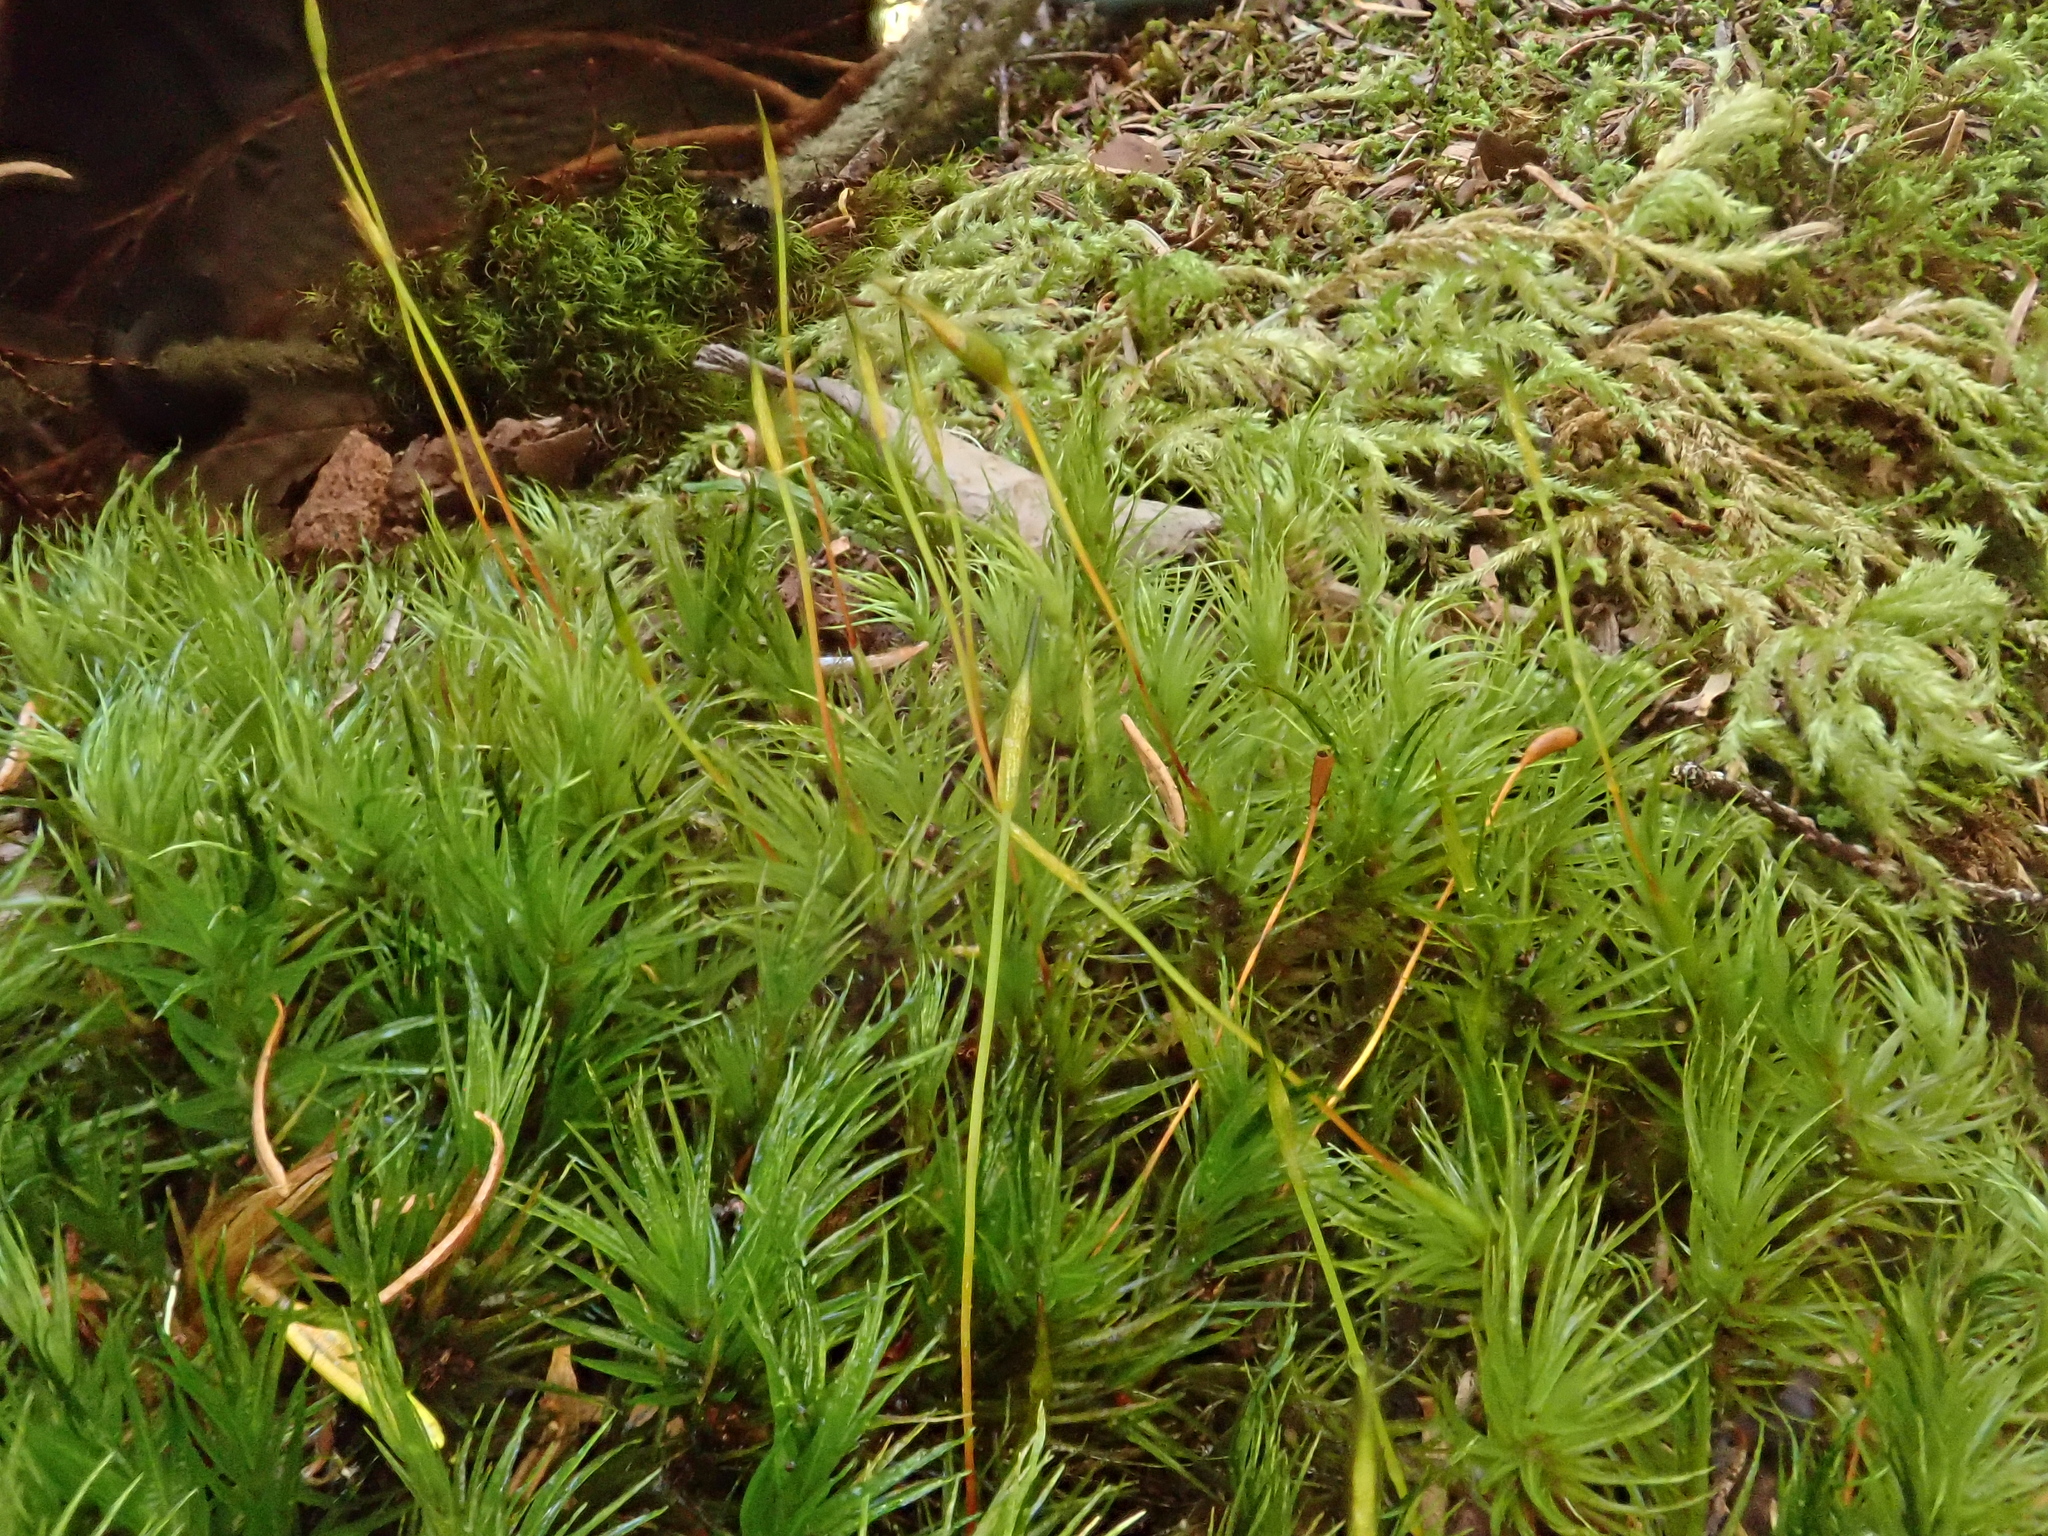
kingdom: Plantae
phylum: Bryophyta
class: Bryopsida
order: Dicranales
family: Dicranaceae
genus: Dicranum
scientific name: Dicranum scoparium
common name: Broom fork-moss
